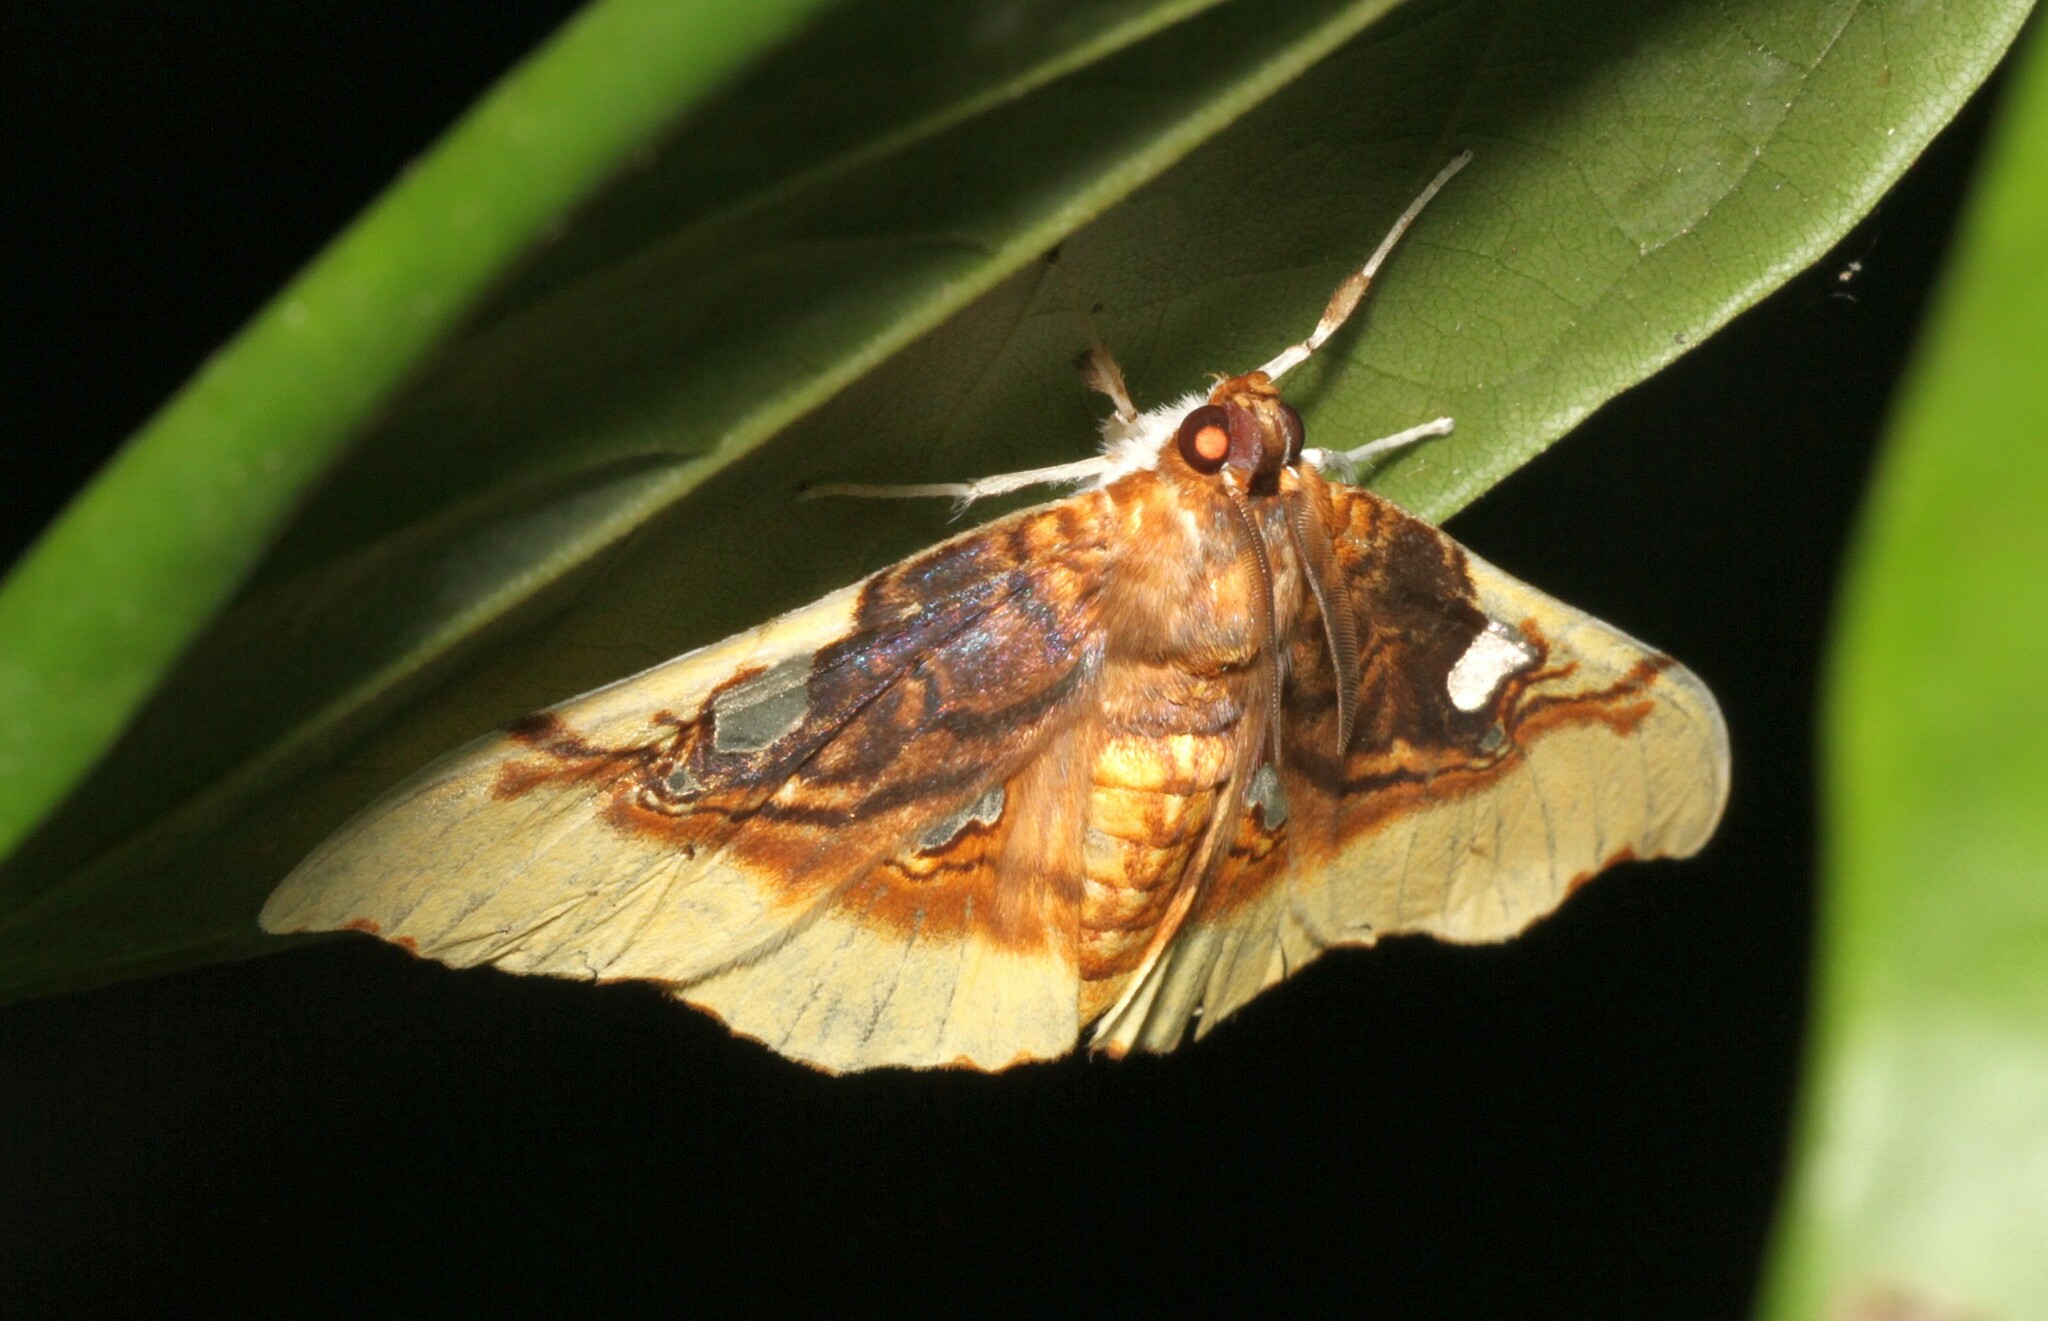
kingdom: Animalia
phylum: Arthropoda
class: Insecta
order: Lepidoptera
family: Crambidae
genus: Eupastranaia
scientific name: Eupastranaia tumidifrons
